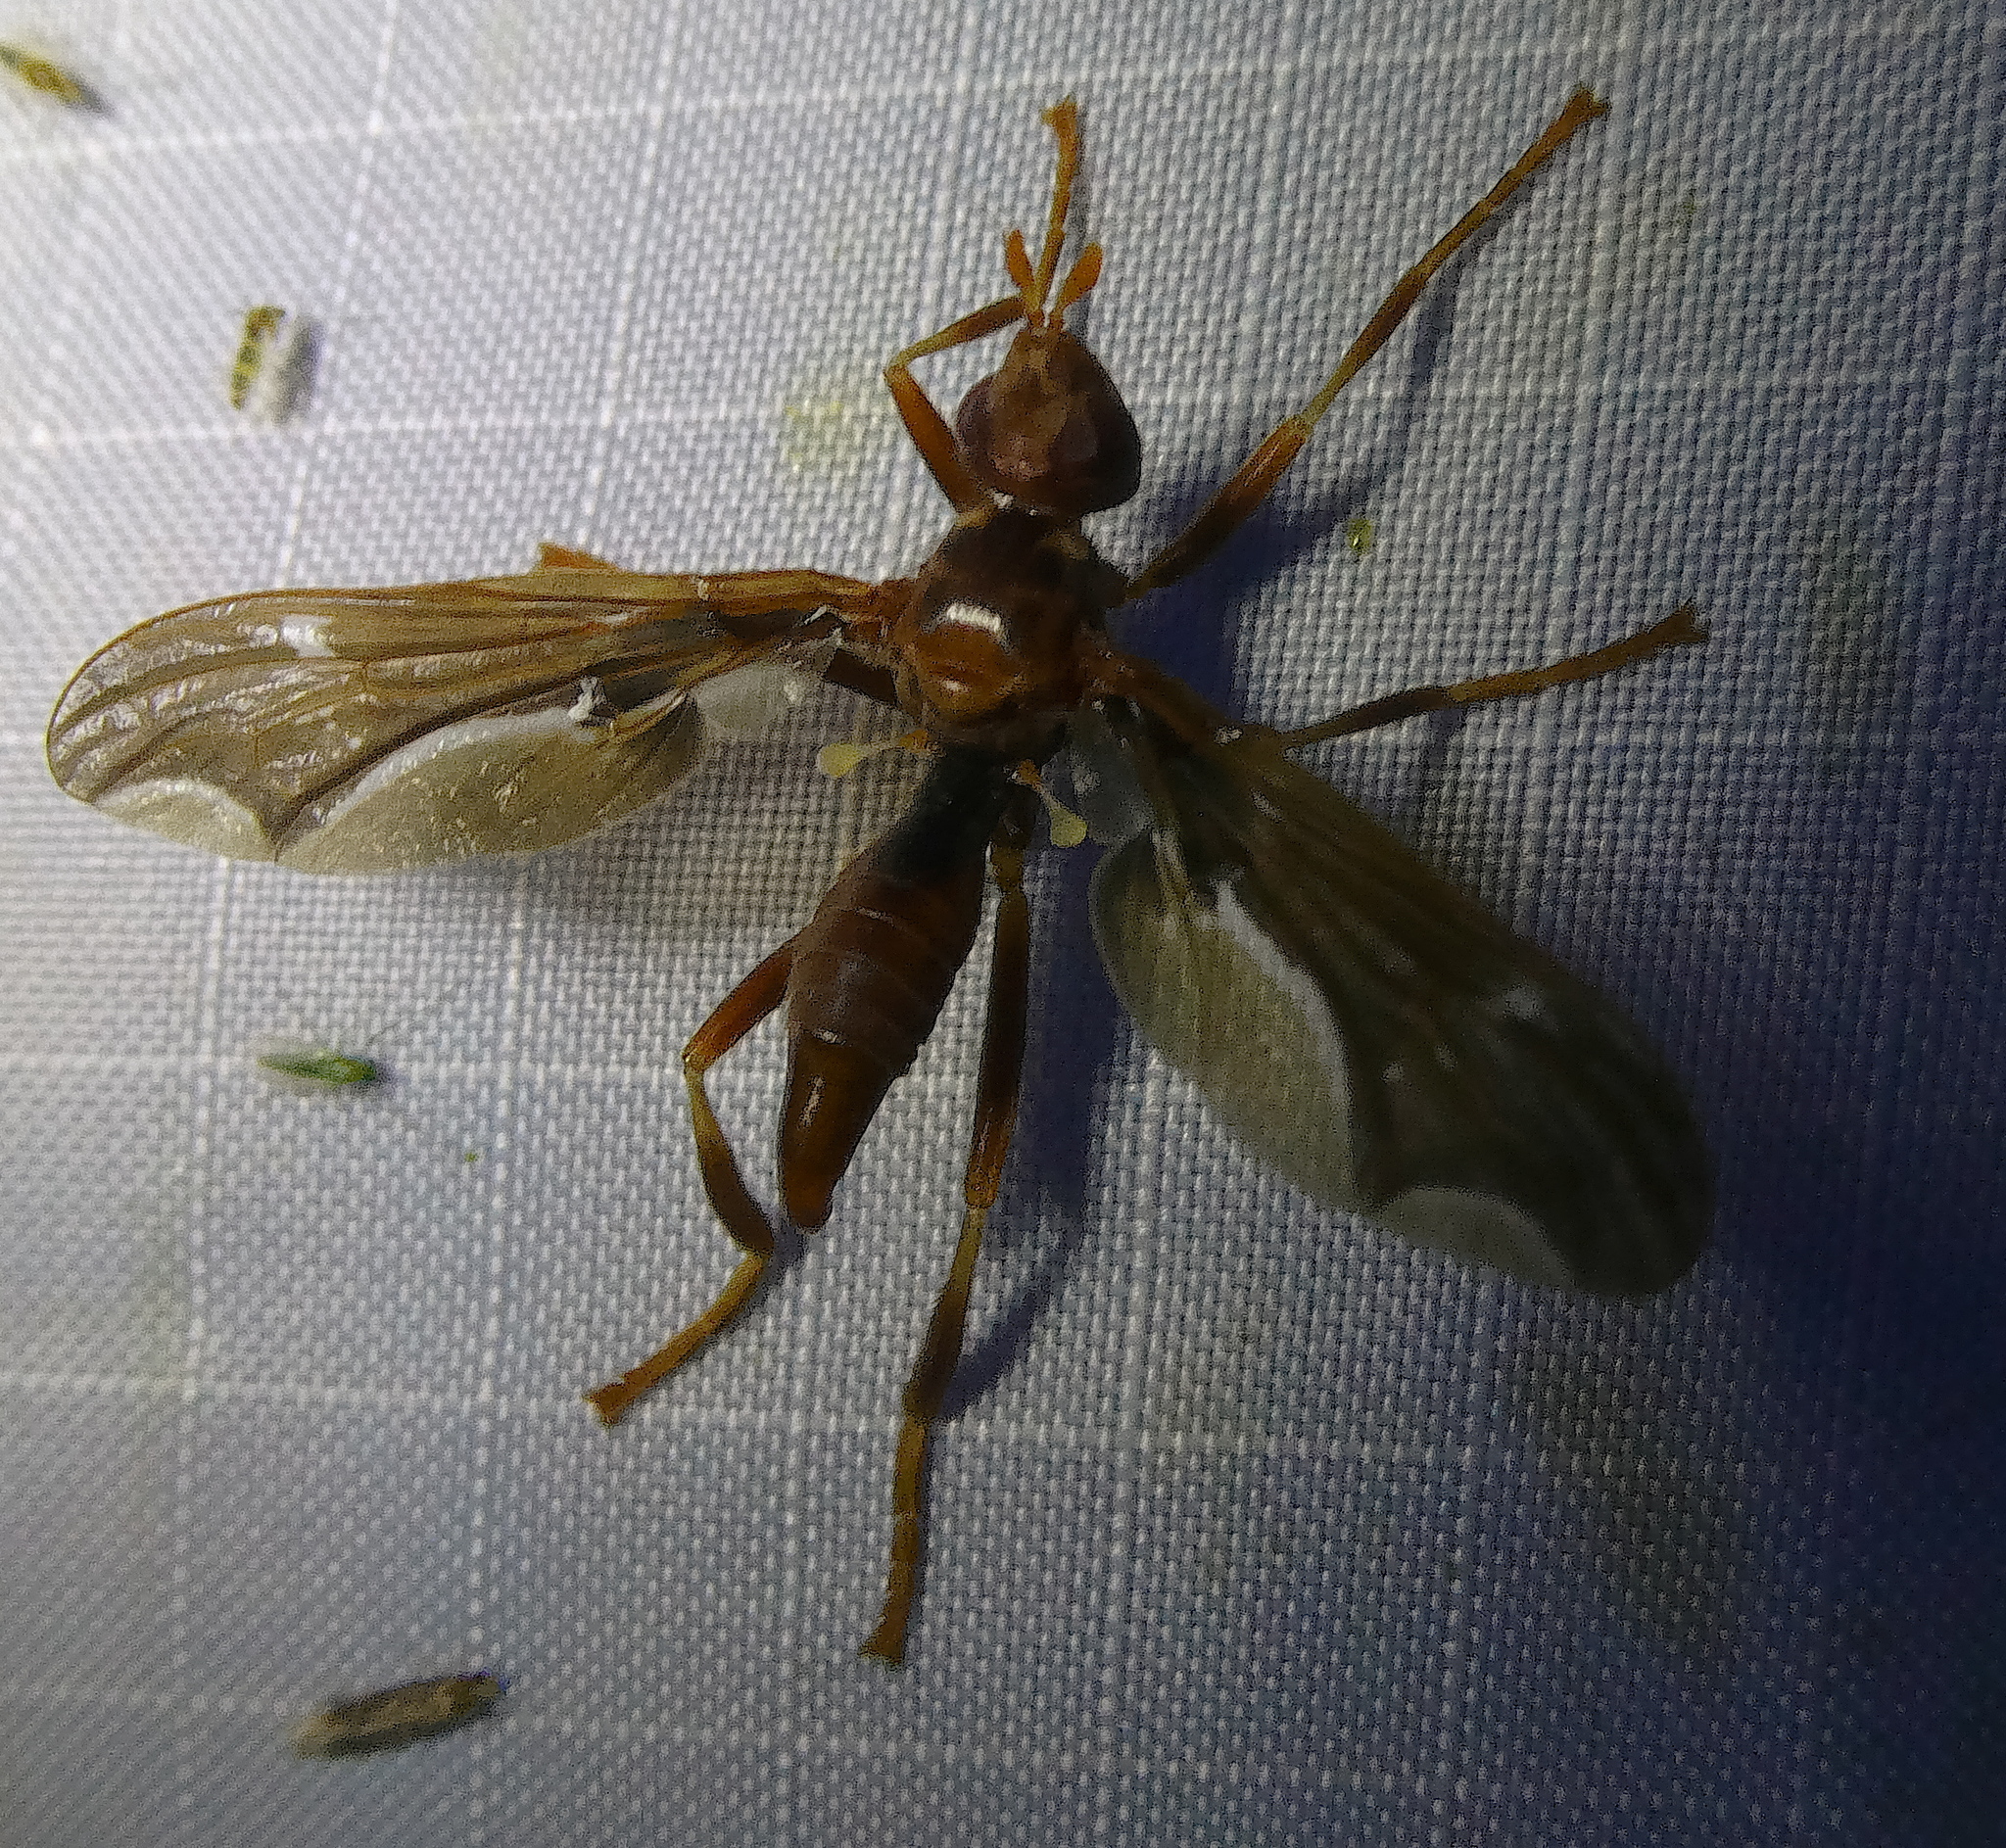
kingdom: Animalia
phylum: Arthropoda
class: Insecta
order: Diptera
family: Pyrgotidae
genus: Pyrgota
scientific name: Pyrgota undata
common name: Waved light fly
